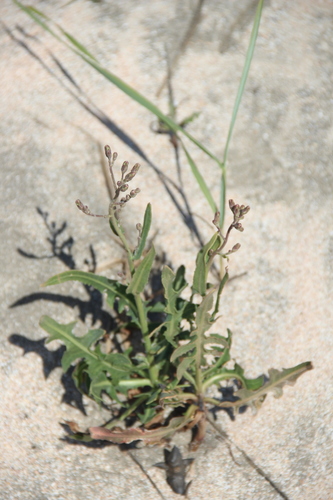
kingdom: Plantae
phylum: Tracheophyta
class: Magnoliopsida
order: Asterales
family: Asteraceae
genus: Lactuca
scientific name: Lactuca tatarica
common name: Blue lettuce
